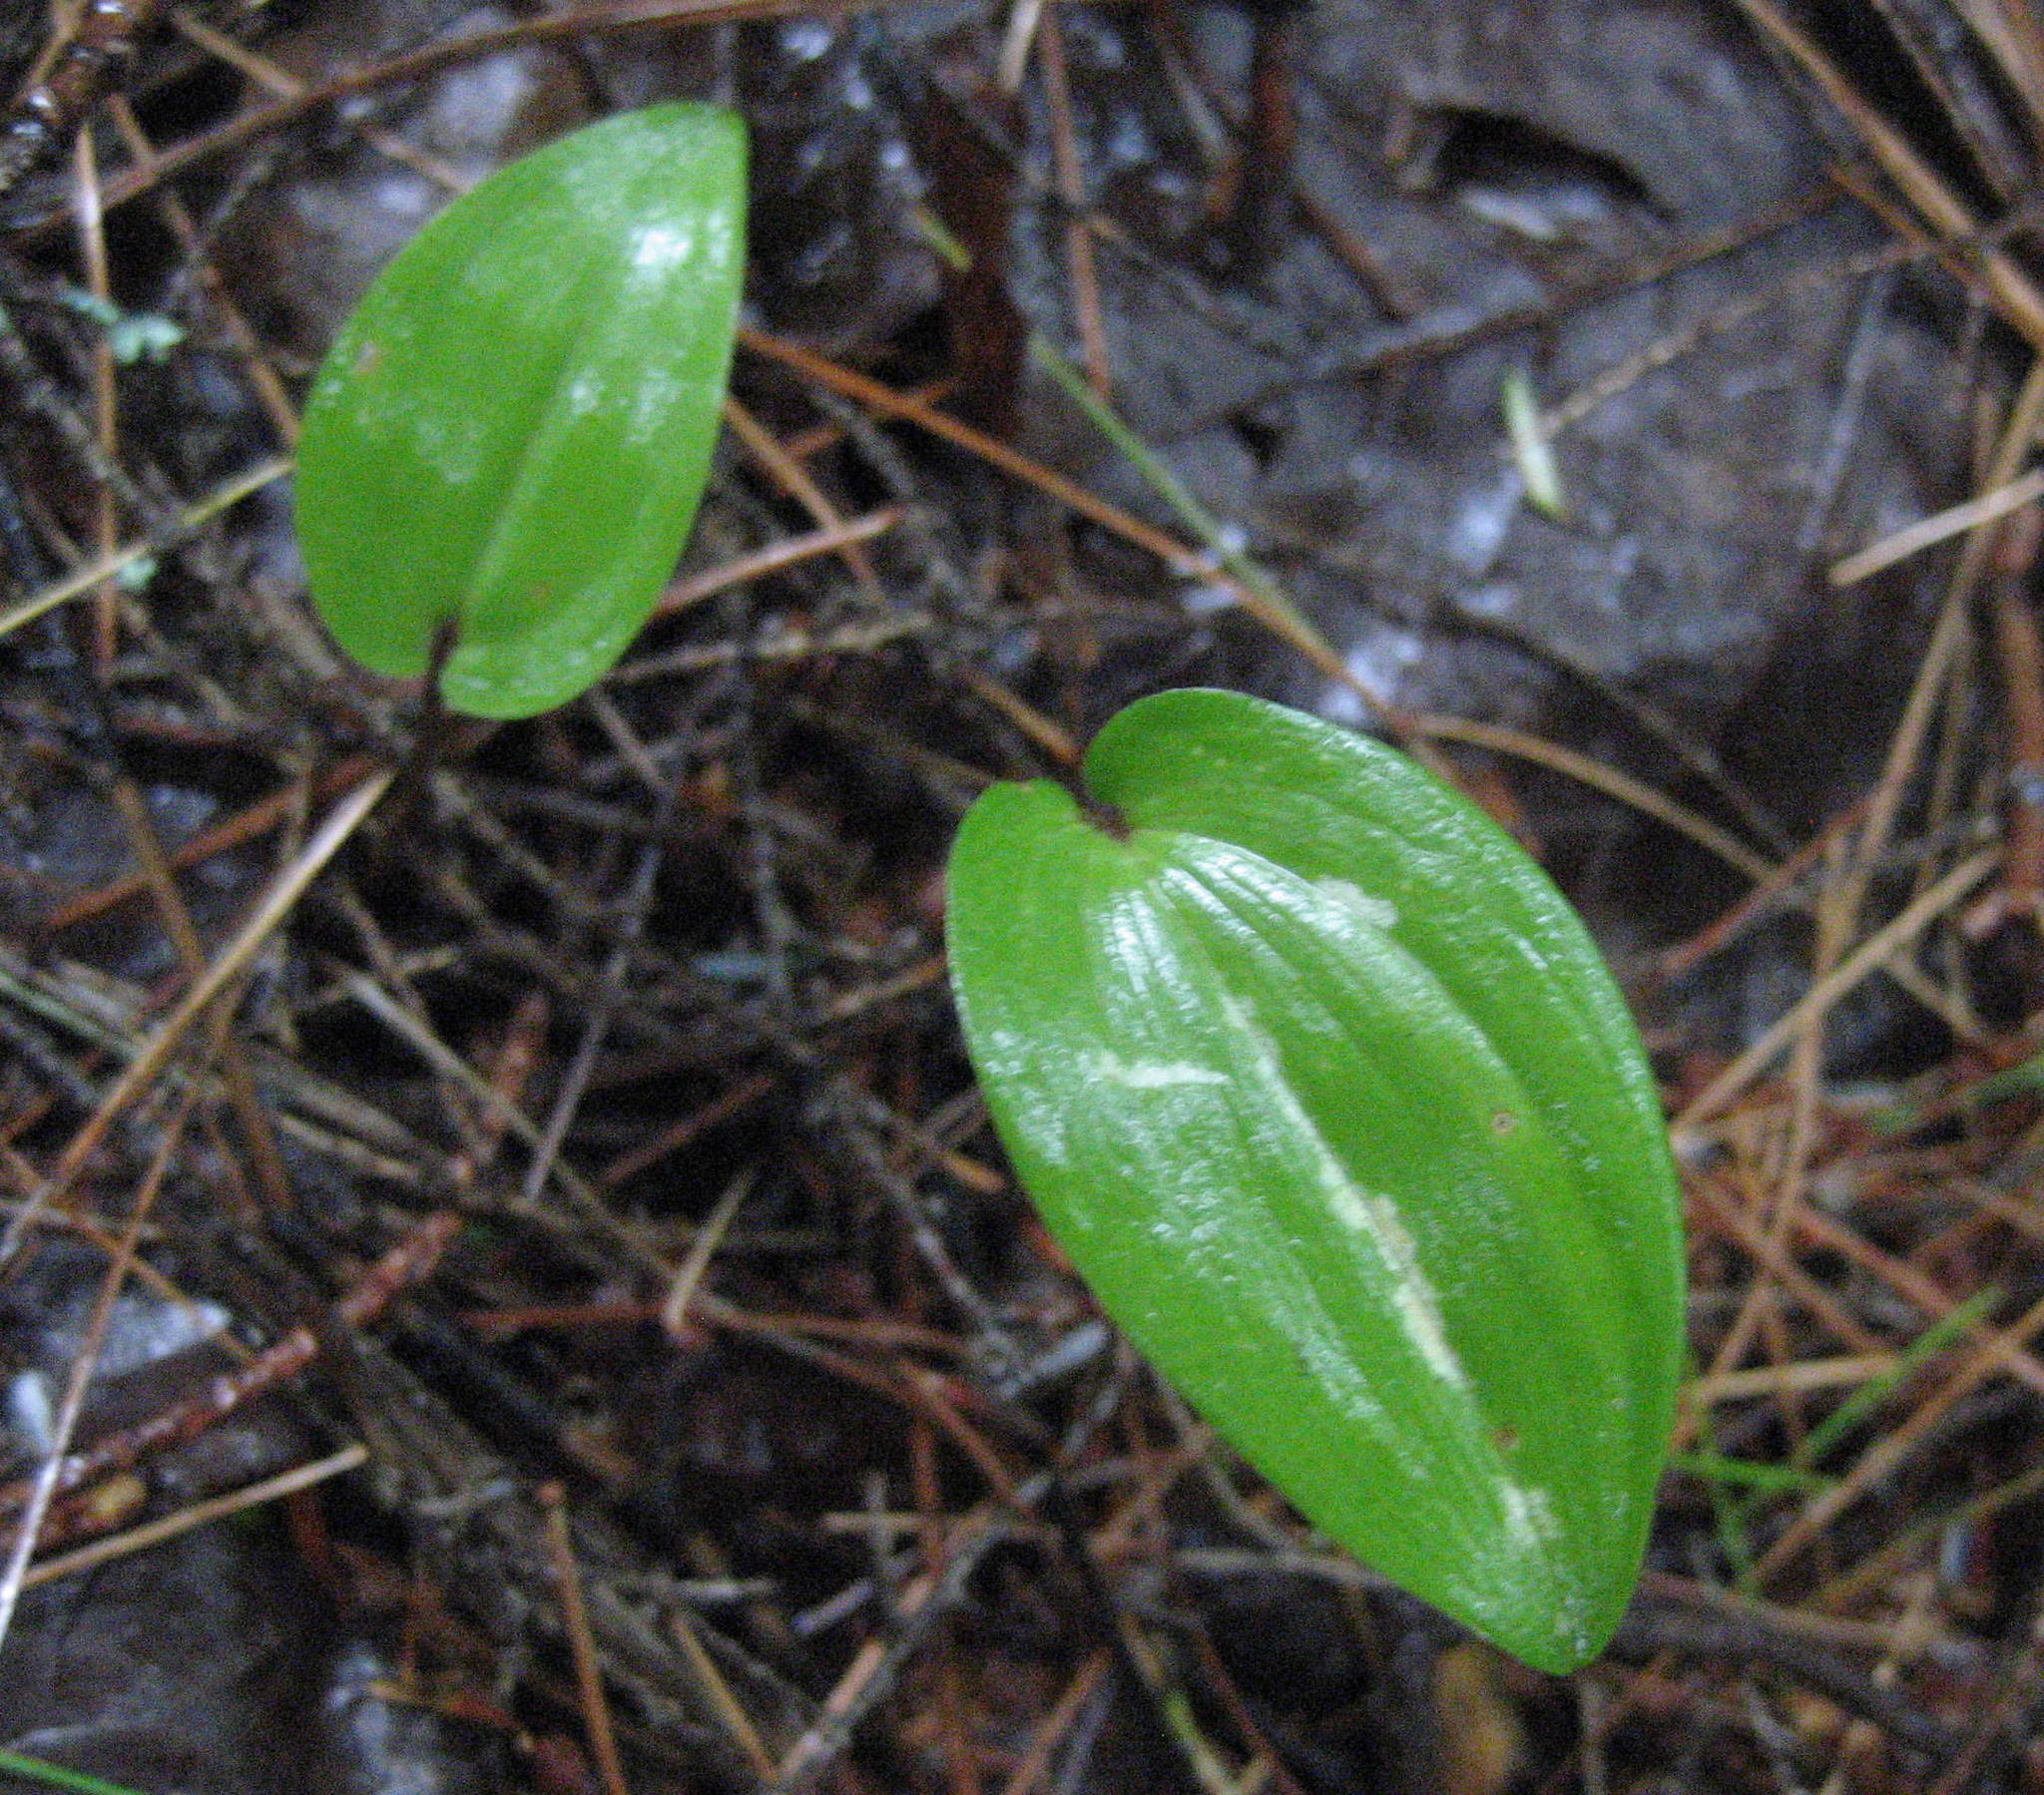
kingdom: Plantae
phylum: Tracheophyta
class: Liliopsida
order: Asparagales
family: Asparagaceae
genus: Maianthemum
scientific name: Maianthemum canadense
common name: False lily-of-the-valley
